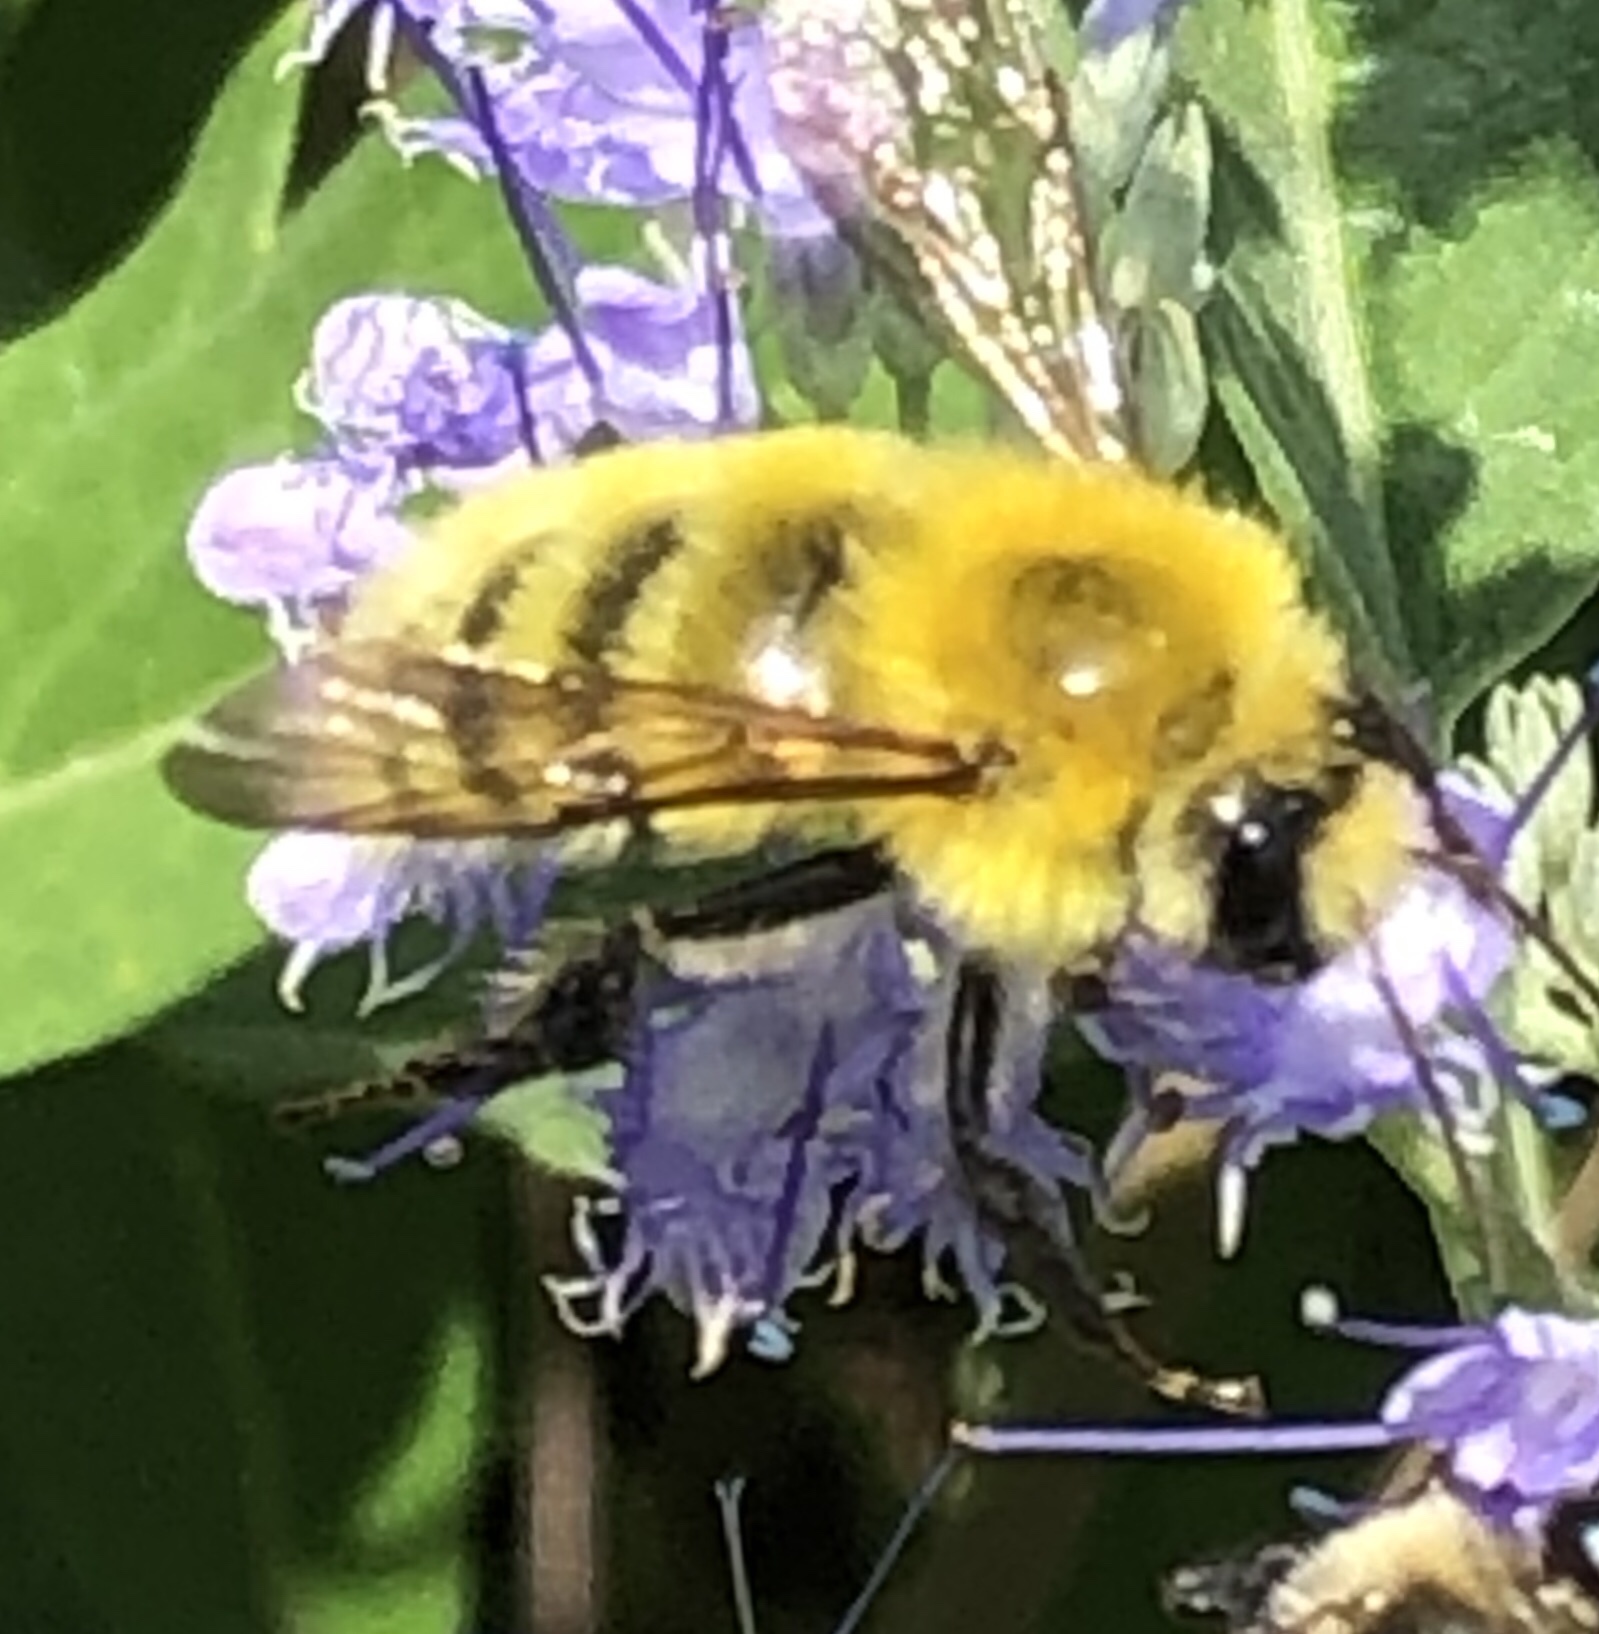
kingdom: Animalia
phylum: Arthropoda
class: Insecta
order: Hymenoptera
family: Apidae
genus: Bombus
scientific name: Bombus perplexus
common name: Confusing bumble bee
